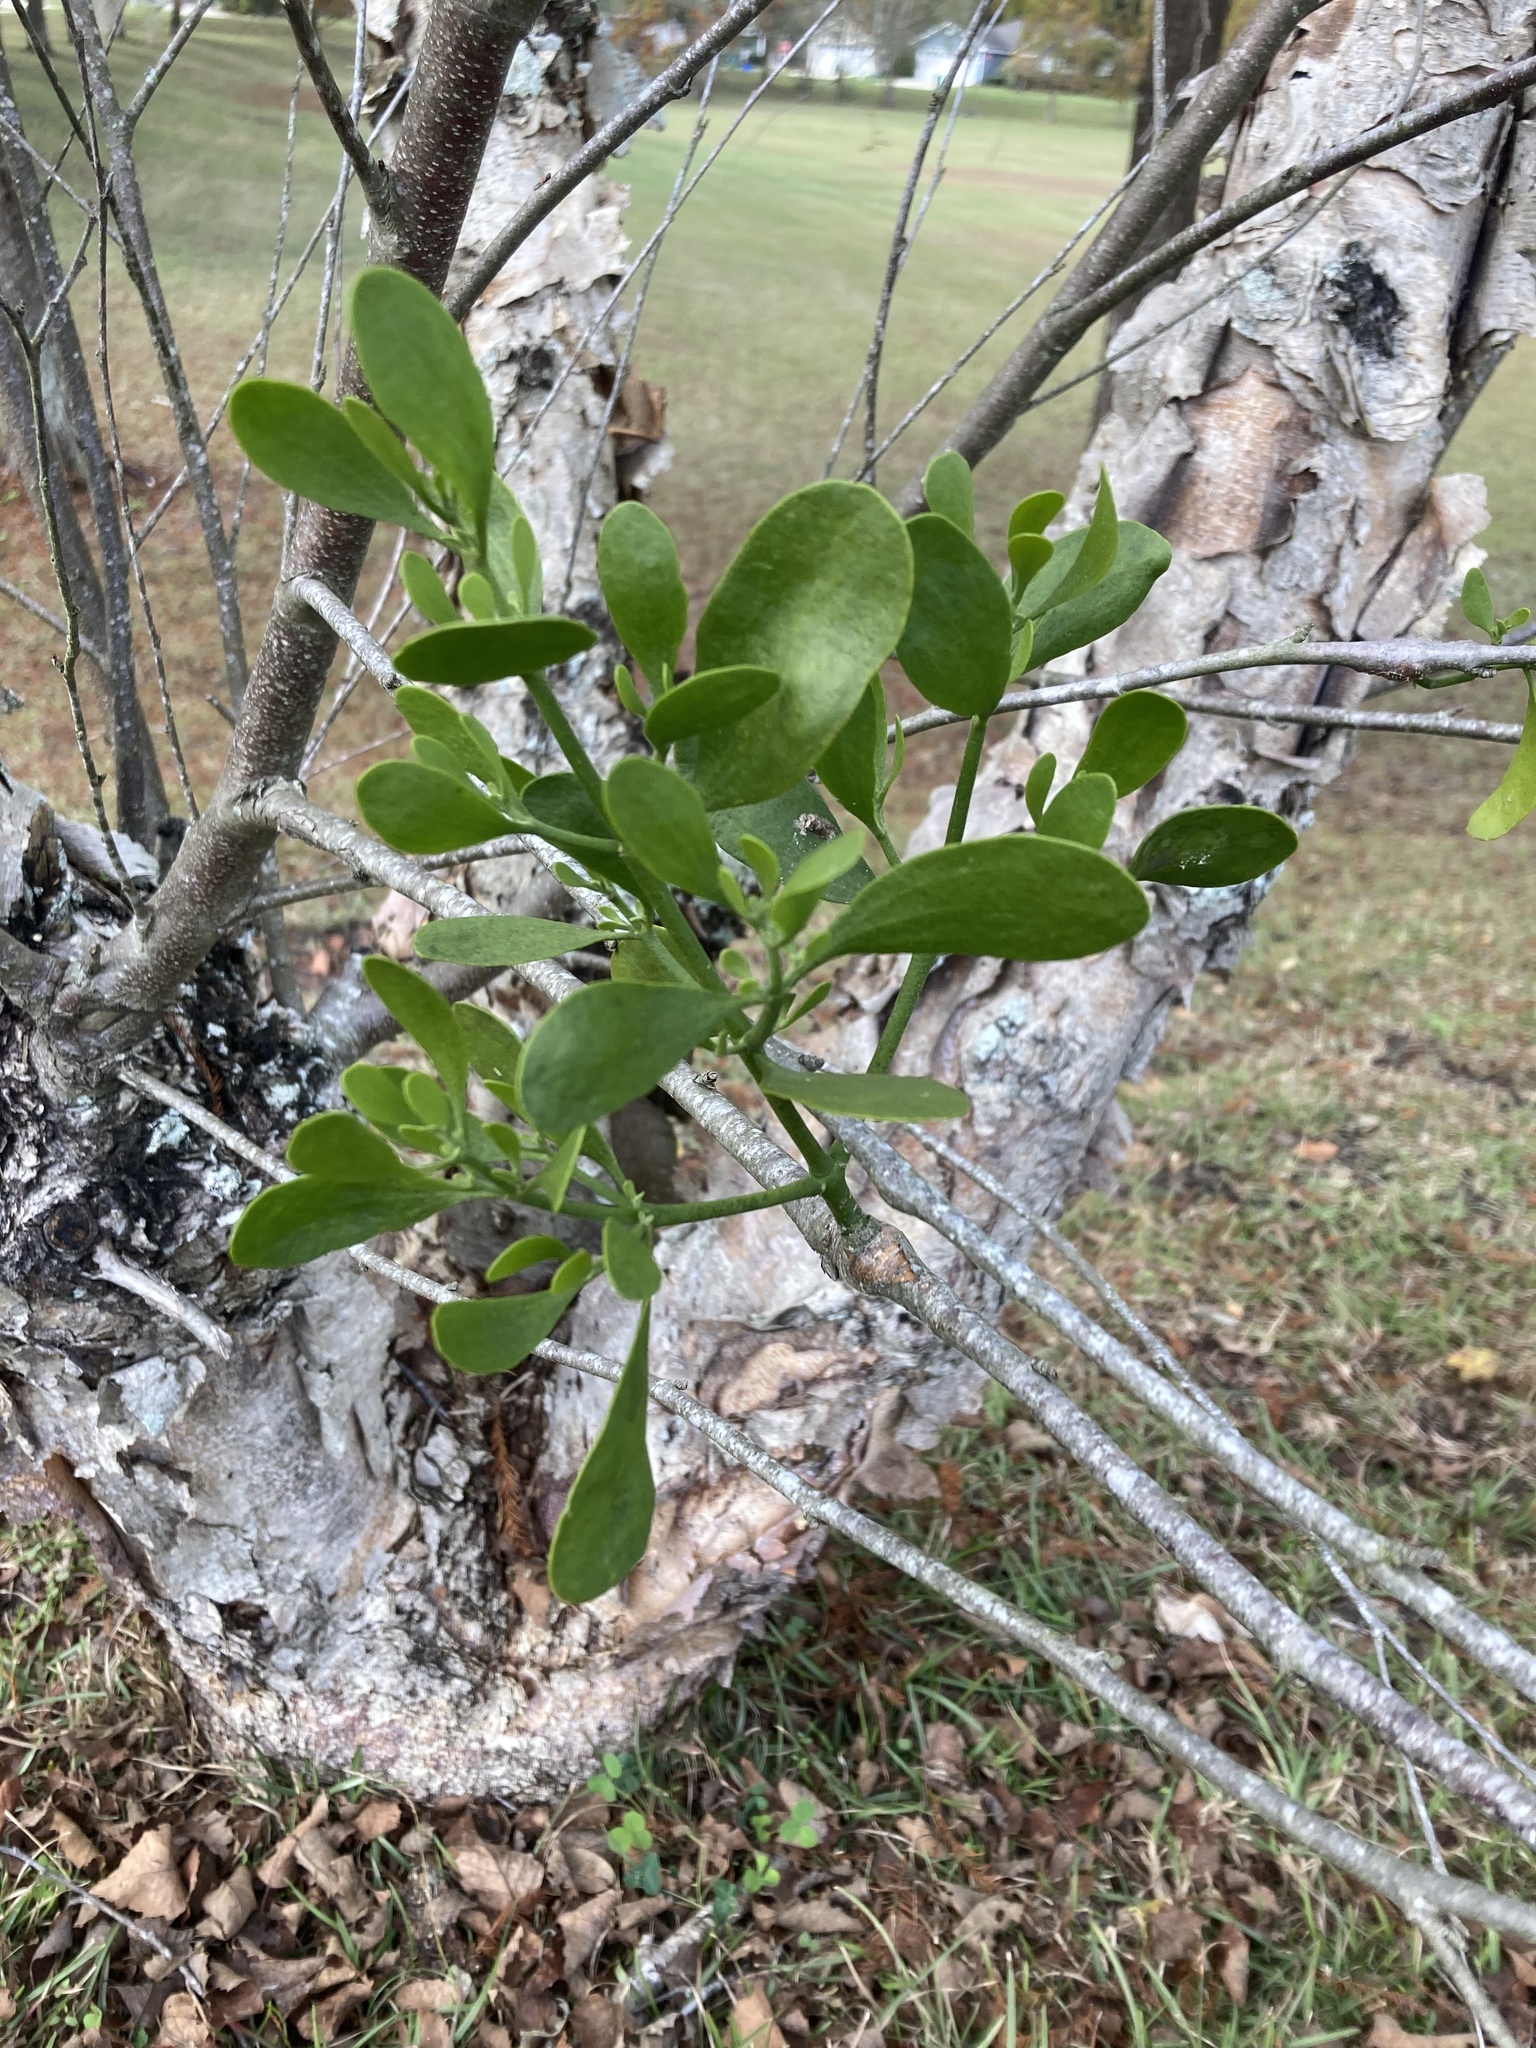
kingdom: Plantae
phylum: Tracheophyta
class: Magnoliopsida
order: Santalales
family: Viscaceae
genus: Phoradendron
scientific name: Phoradendron leucarpum
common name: Pacific mistletoe
